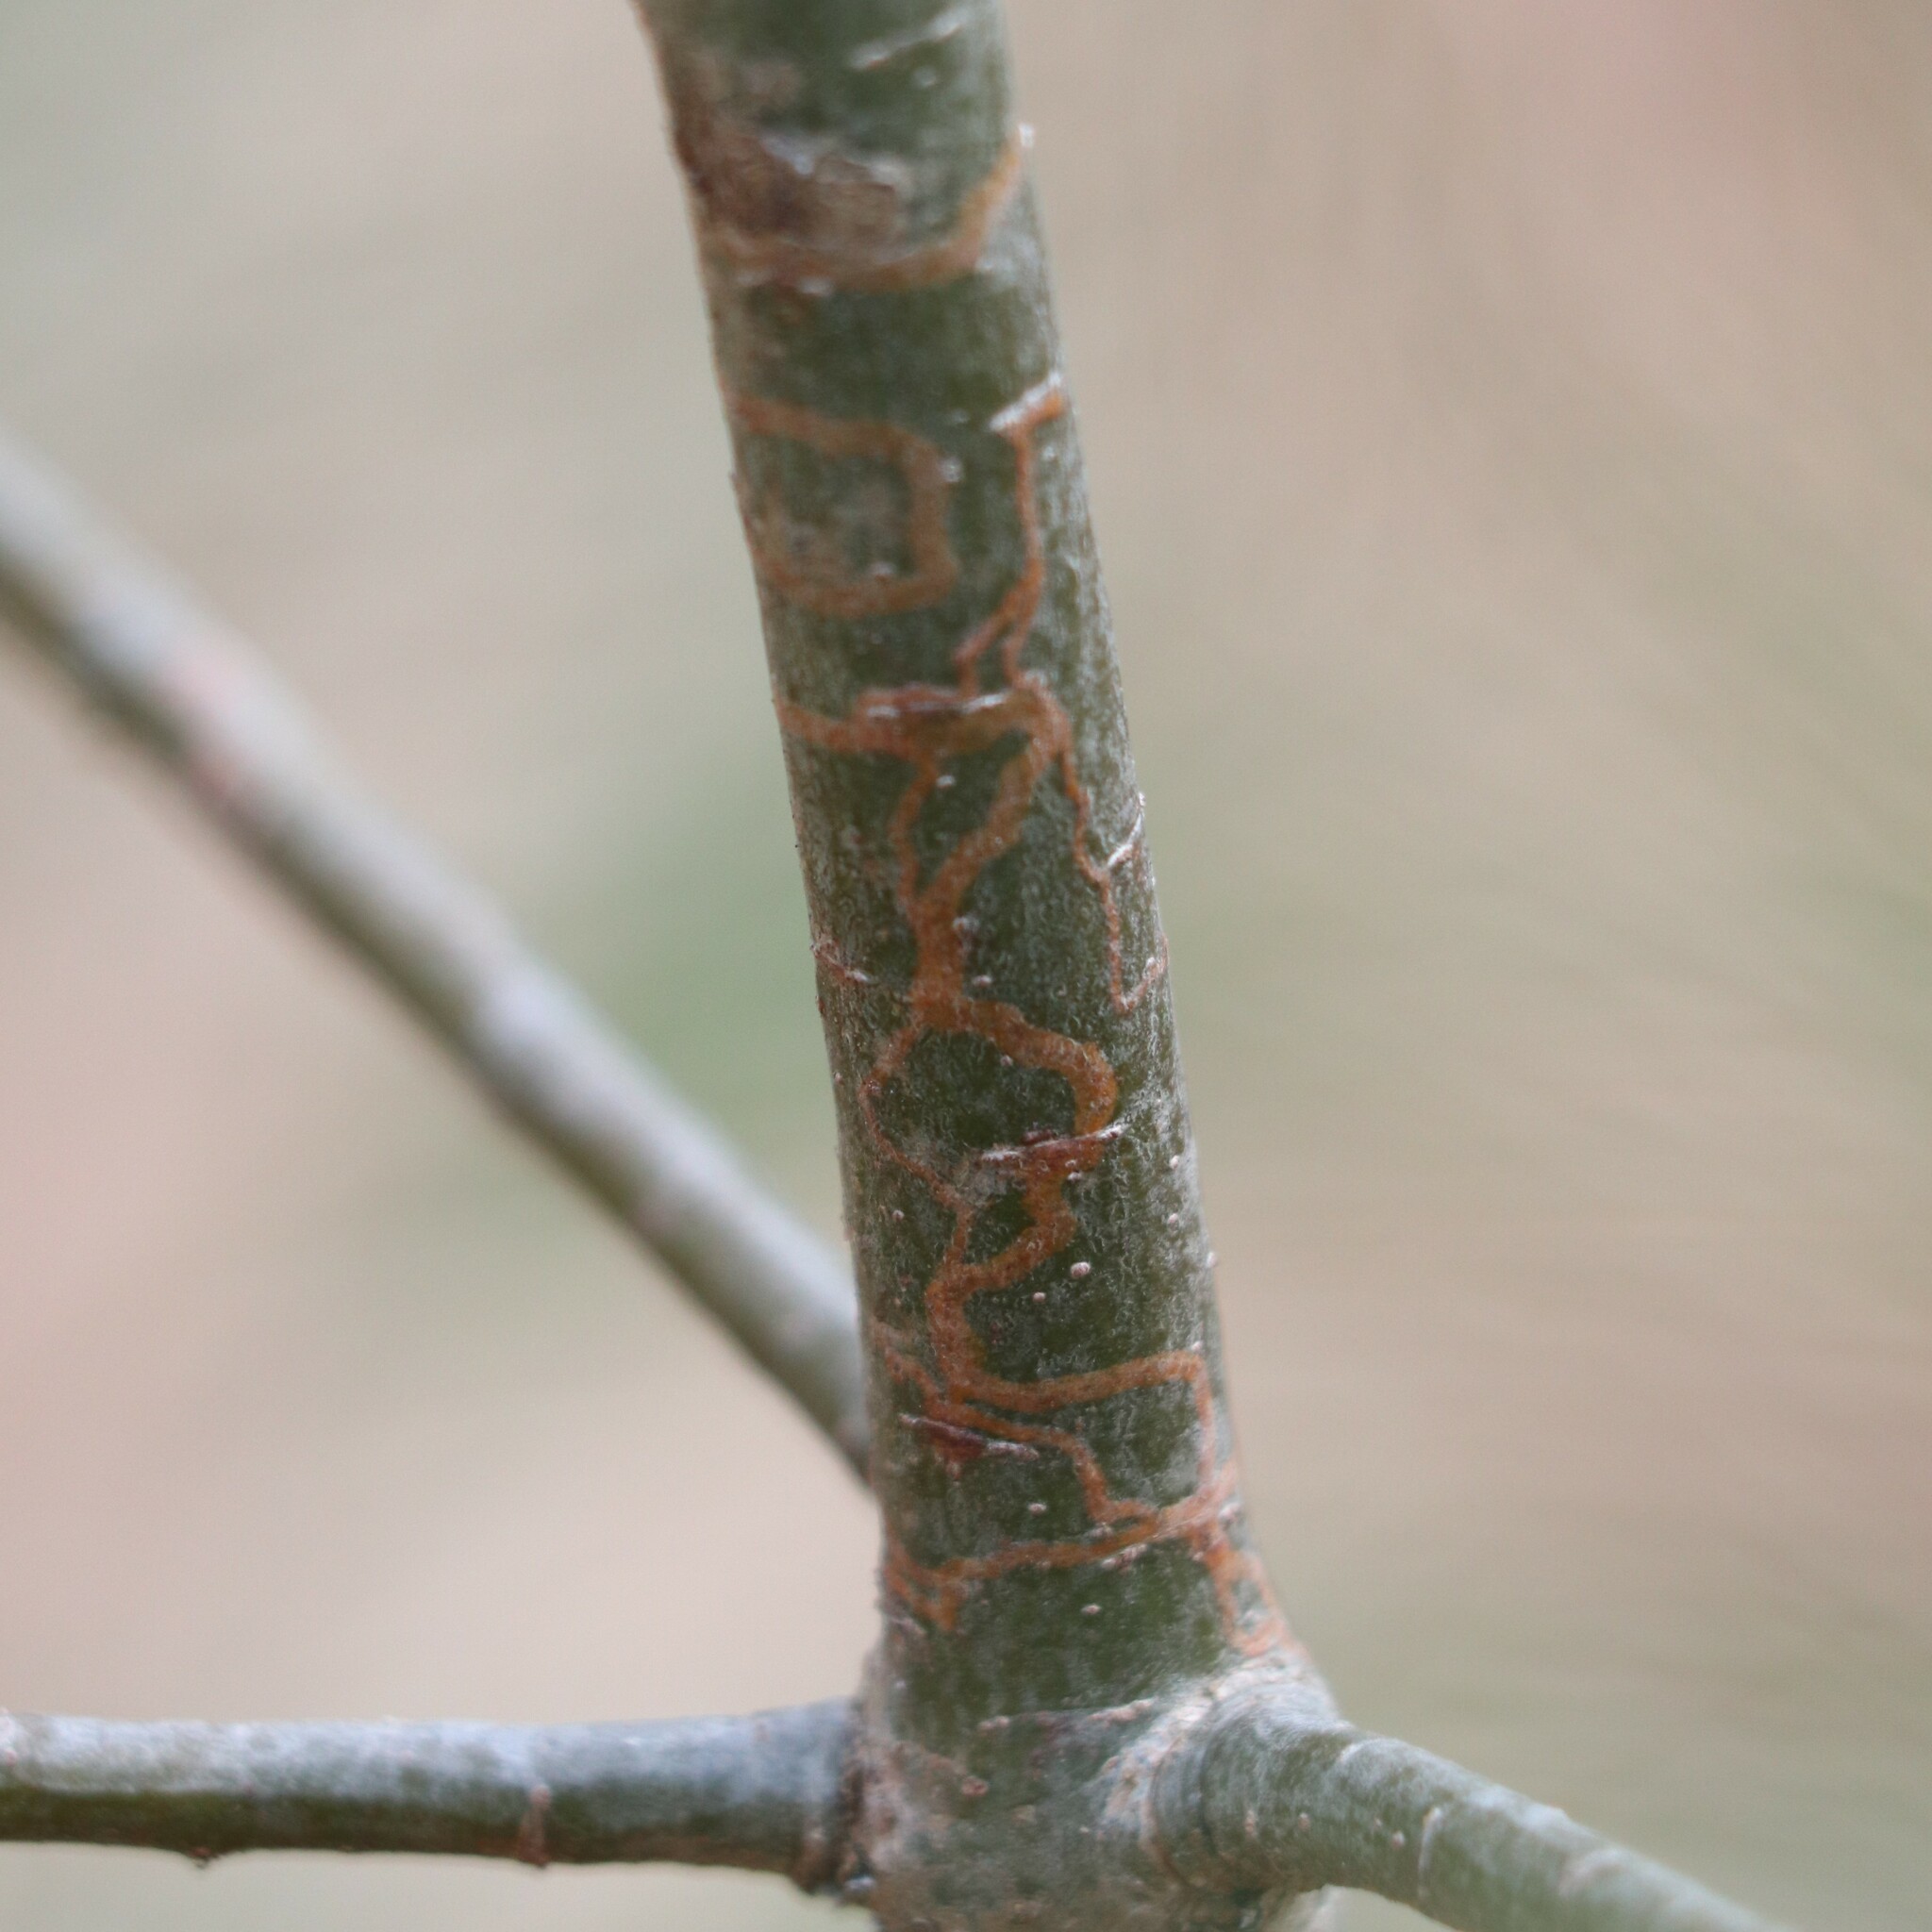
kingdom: Animalia
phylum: Arthropoda
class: Insecta
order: Lepidoptera
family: Gracillariidae
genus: Marmara
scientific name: Marmara fasciella
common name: White pine barkminer moth
